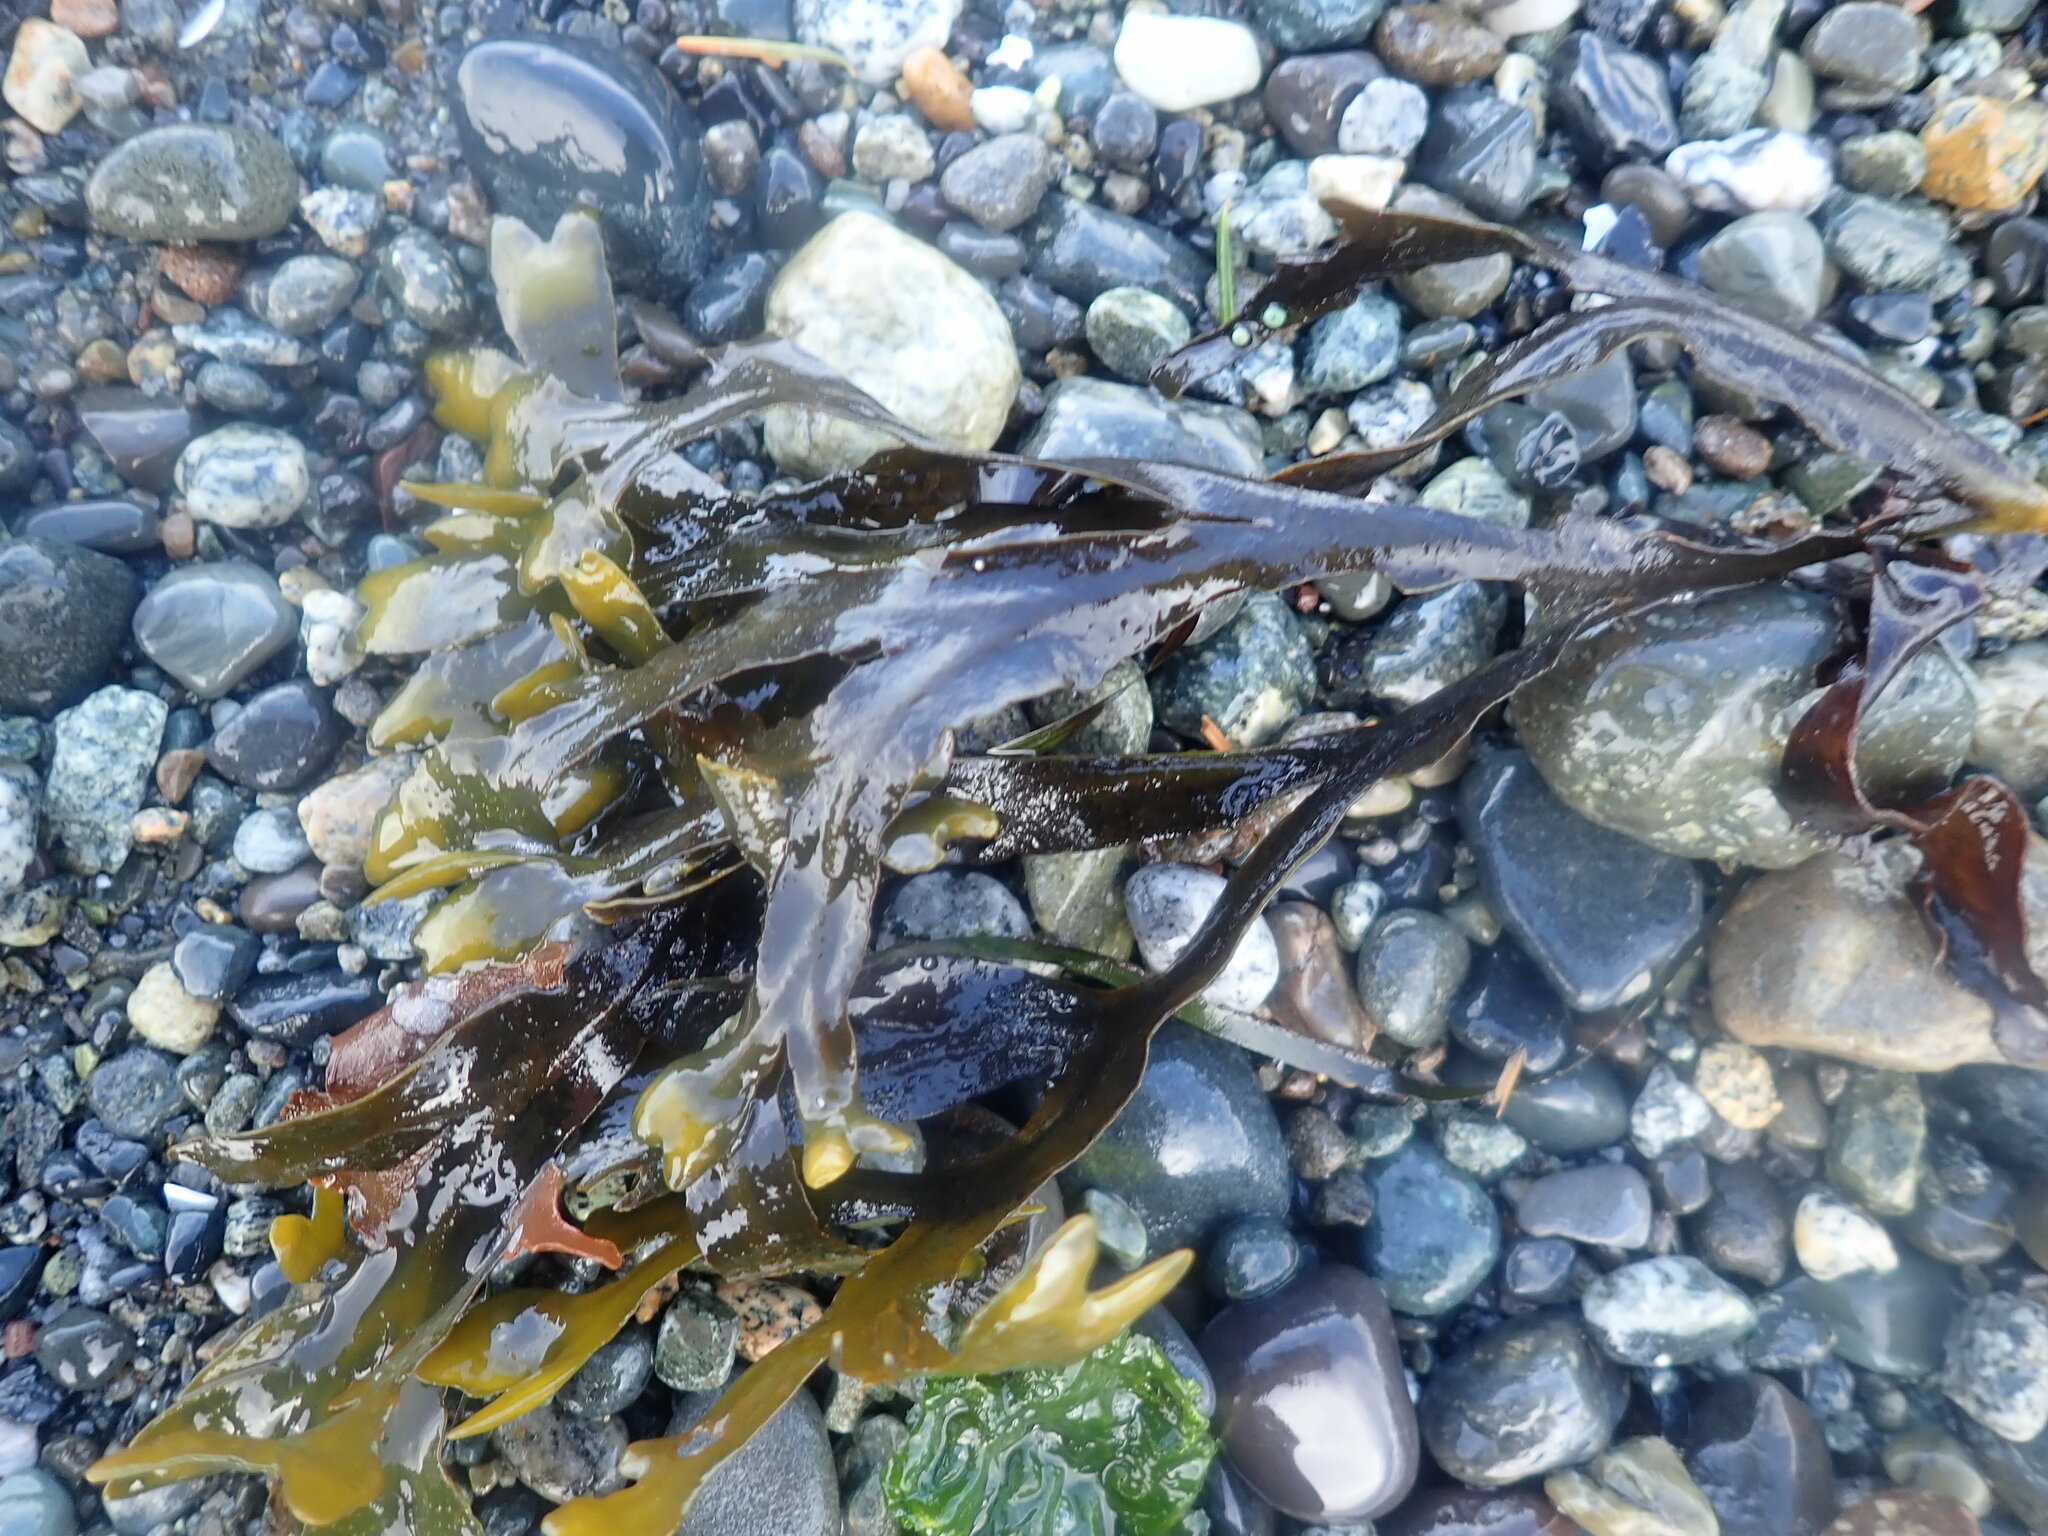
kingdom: Chromista
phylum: Ochrophyta
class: Phaeophyceae
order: Fucales
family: Fucaceae
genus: Fucus
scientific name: Fucus distichus
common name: Rockweed
